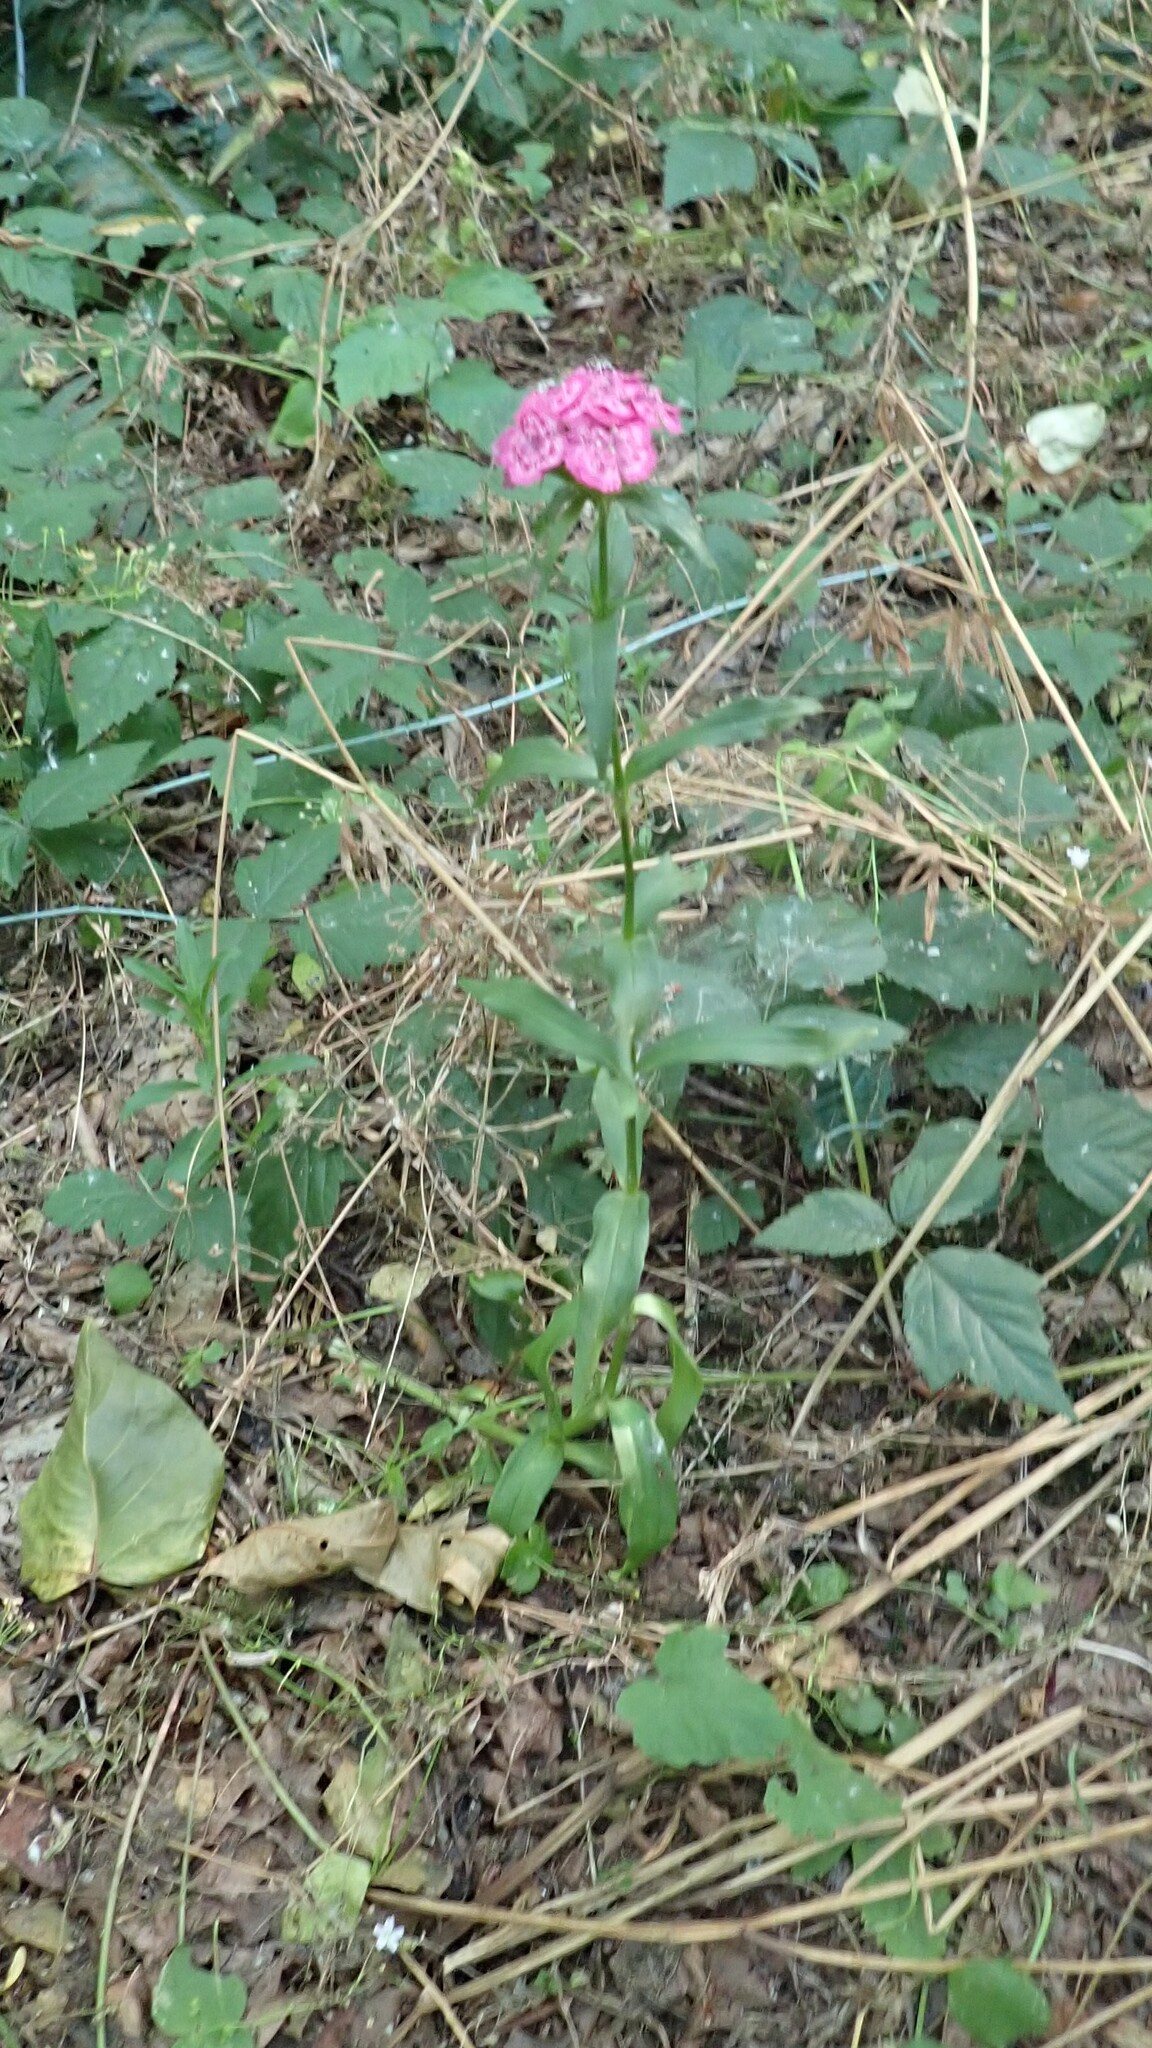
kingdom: Plantae
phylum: Tracheophyta
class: Magnoliopsida
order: Caryophyllales
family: Caryophyllaceae
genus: Dianthus
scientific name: Dianthus barbatus
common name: Sweet-william
